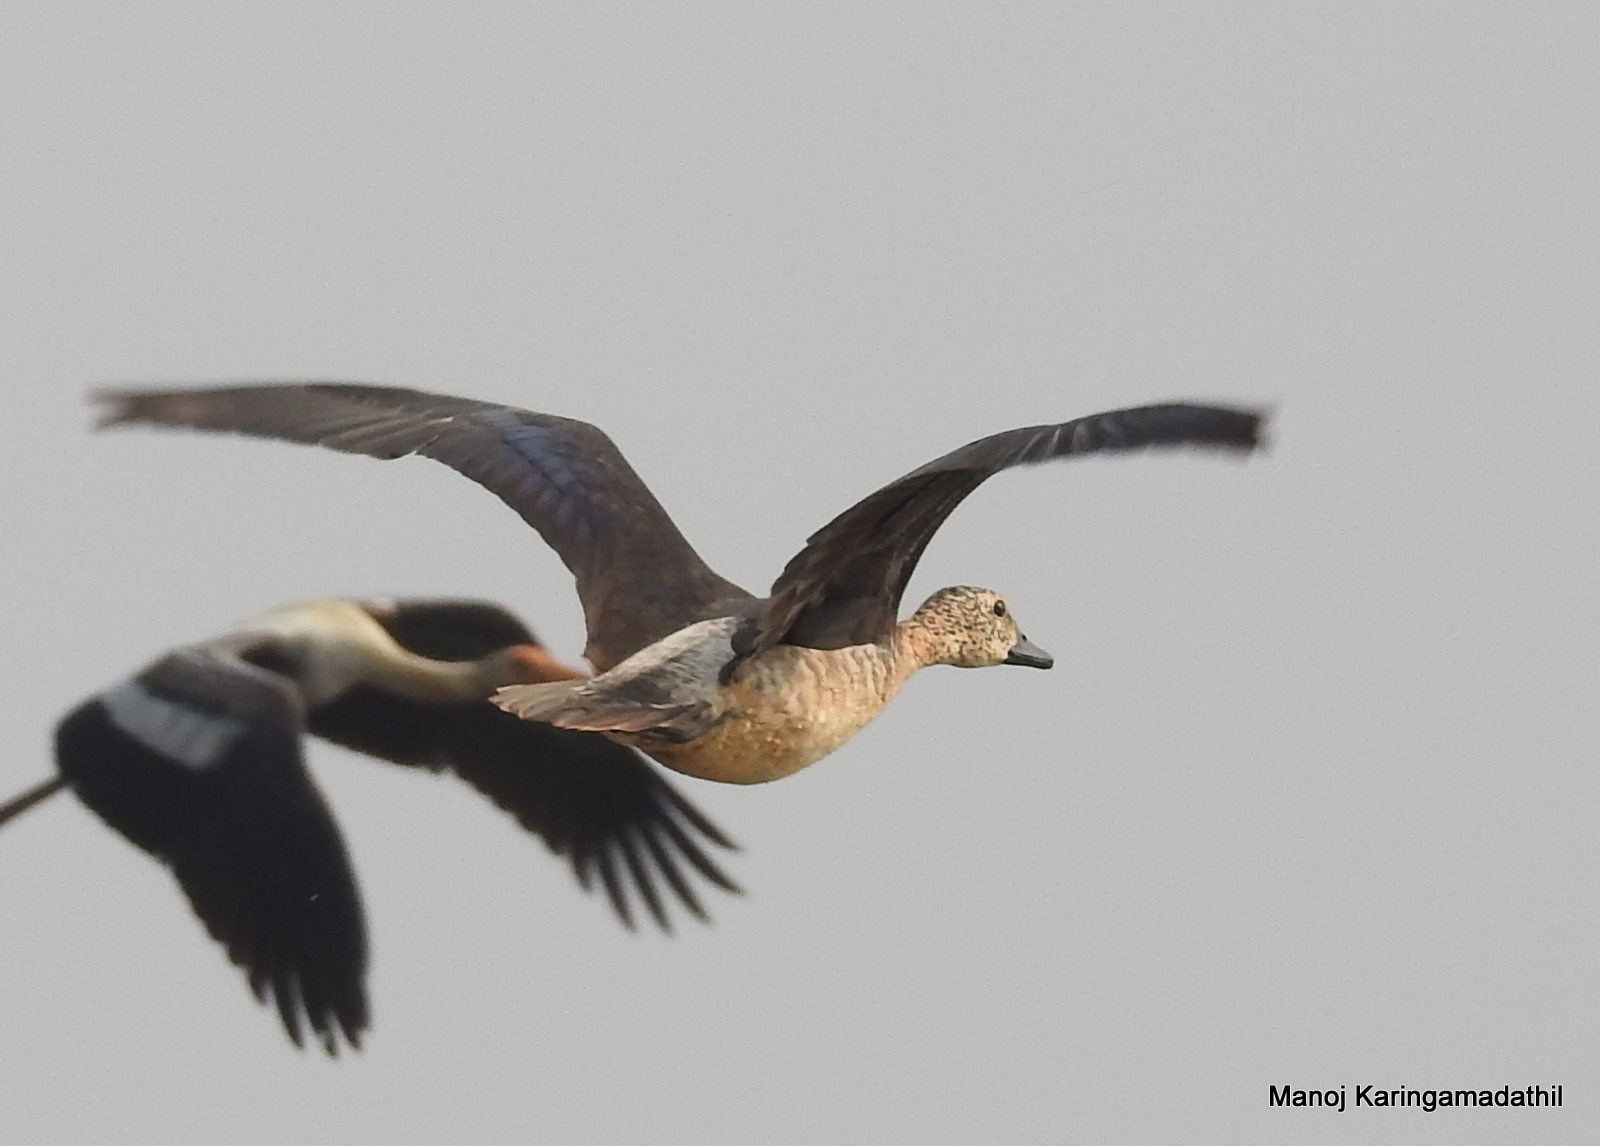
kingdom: Animalia
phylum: Chordata
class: Aves
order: Anseriformes
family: Anatidae
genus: Sarkidiornis
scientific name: Sarkidiornis melanotos
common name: Comb duck
